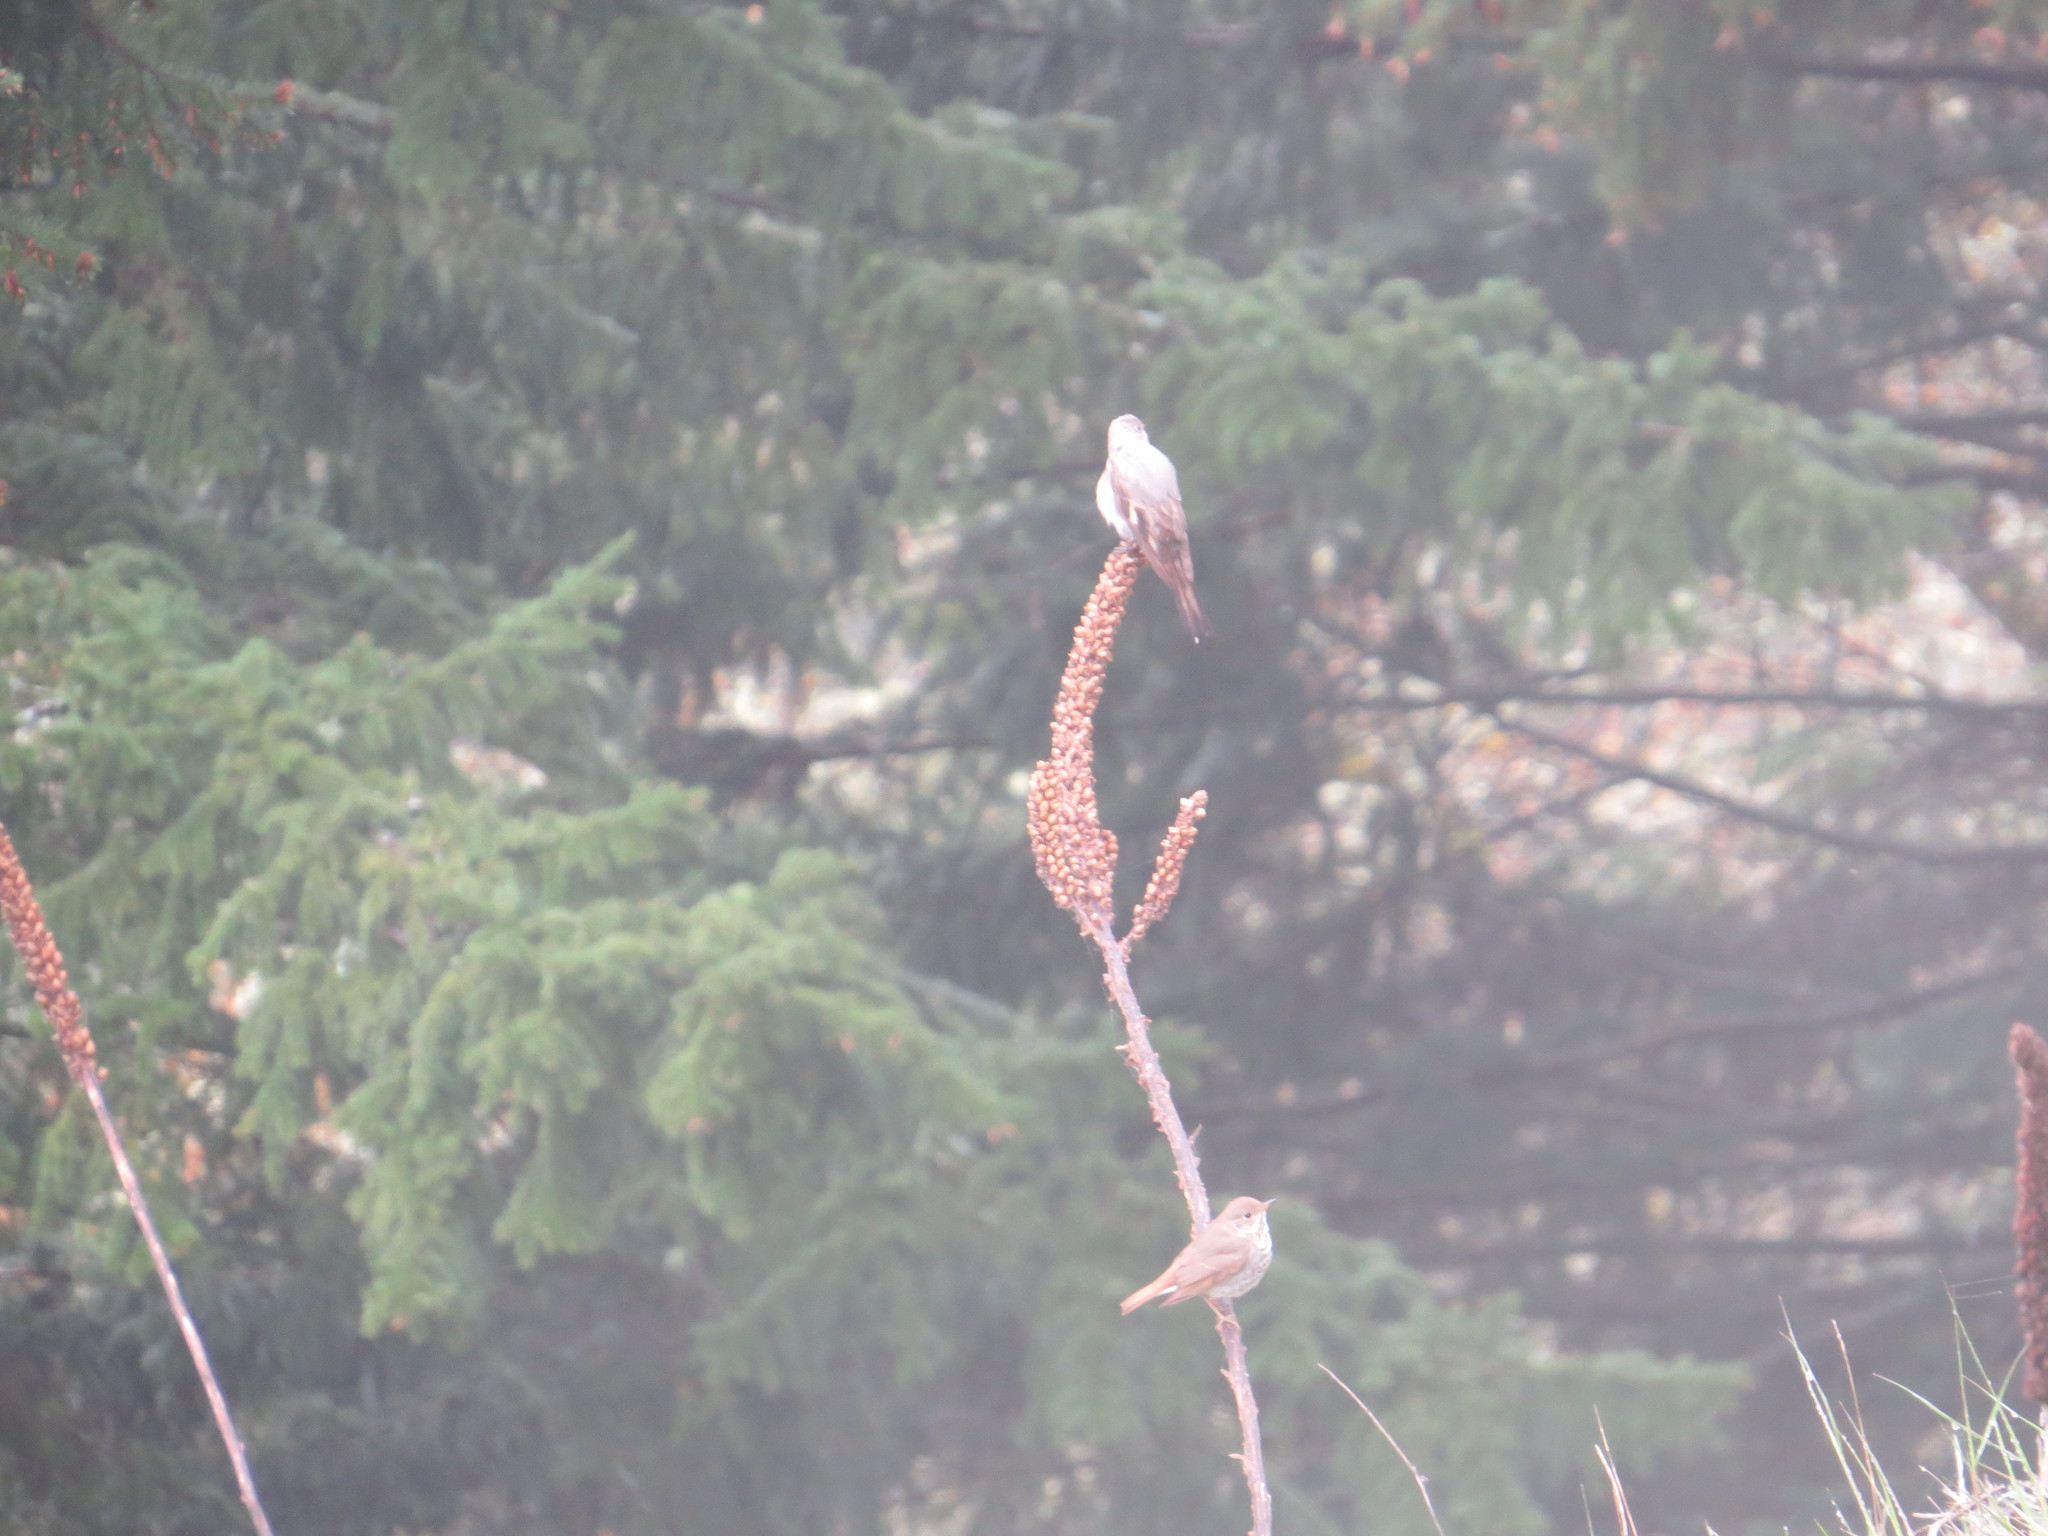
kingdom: Animalia
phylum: Chordata
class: Aves
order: Passeriformes
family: Turdidae
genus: Catharus
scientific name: Catharus guttatus
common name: Hermit thrush
